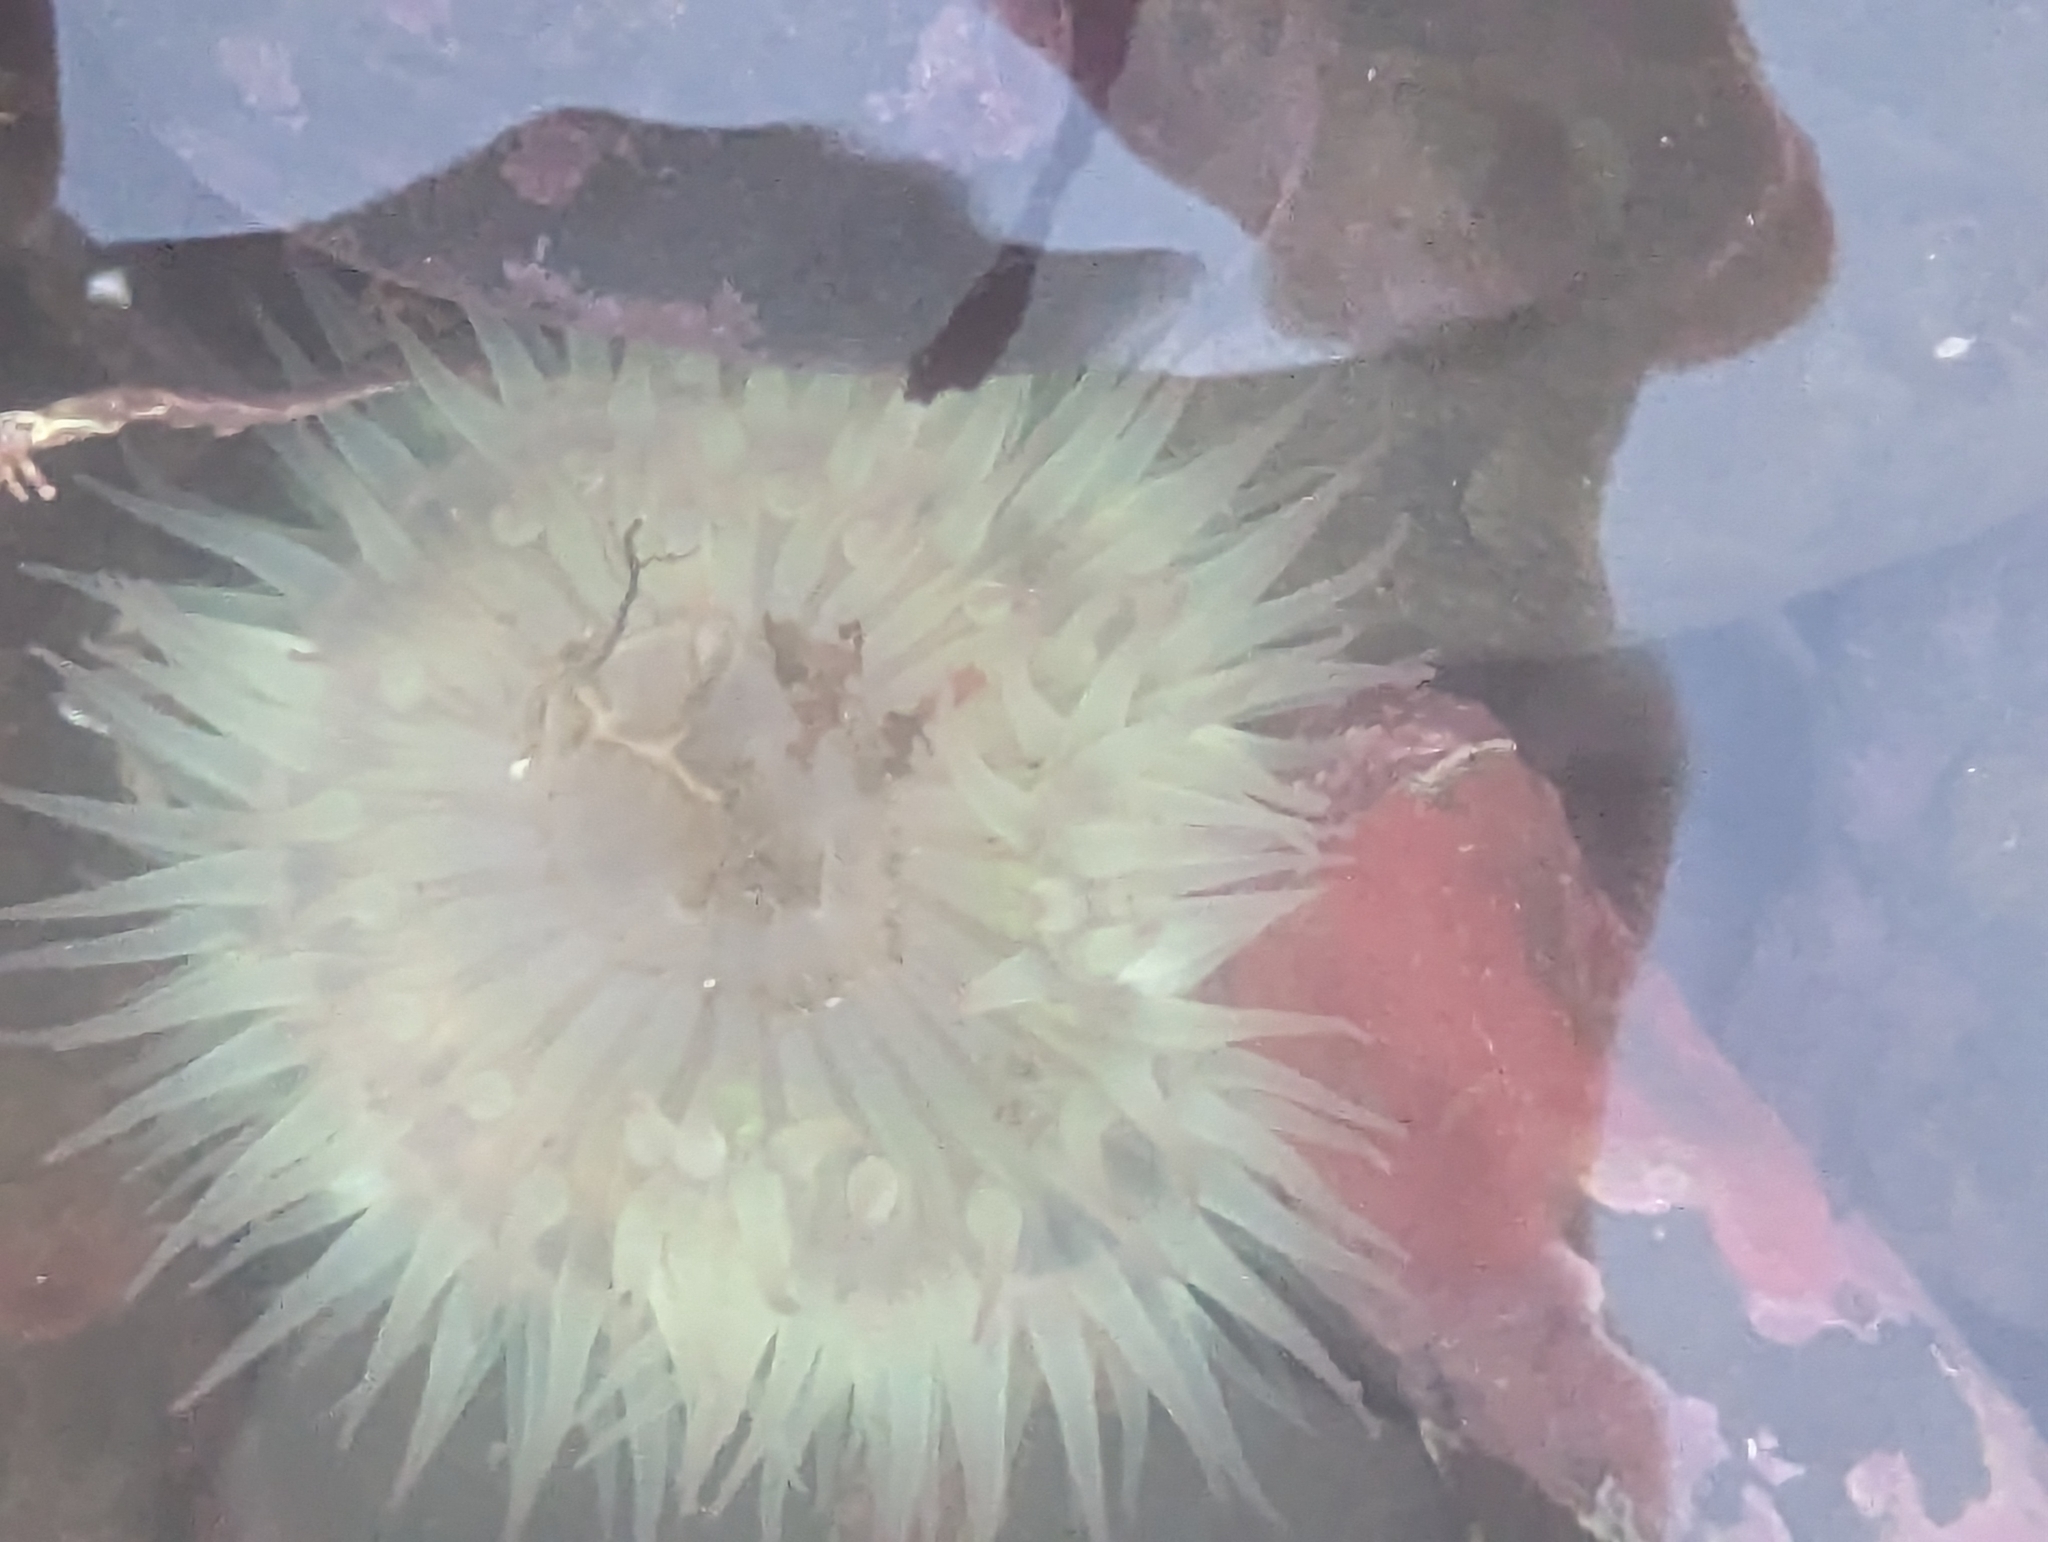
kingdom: Animalia
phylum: Cnidaria
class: Anthozoa
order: Actiniaria
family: Actiniidae
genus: Anthopleura
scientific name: Anthopleura sola
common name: Sun anemone
